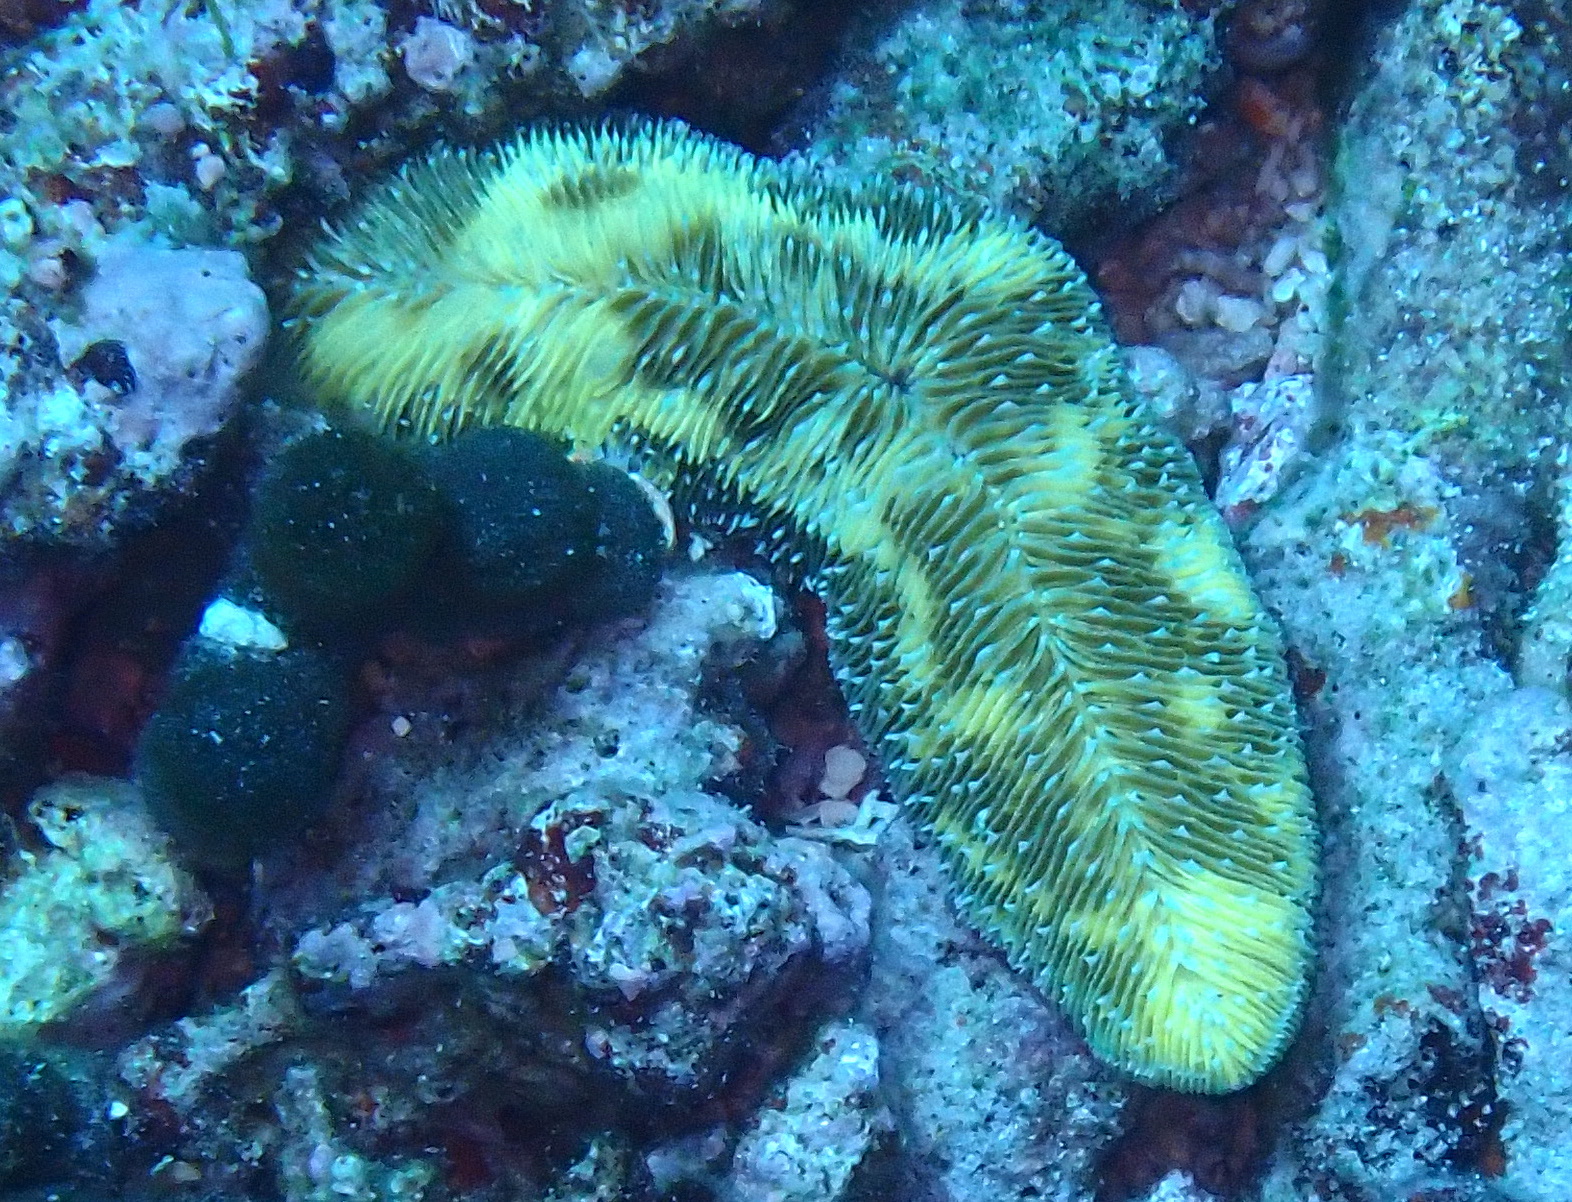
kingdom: Animalia
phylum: Cnidaria
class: Anthozoa
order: Scleractinia
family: Fungiidae
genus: Herpolitha
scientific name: Herpolitha limax
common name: Striate boomerang coral
